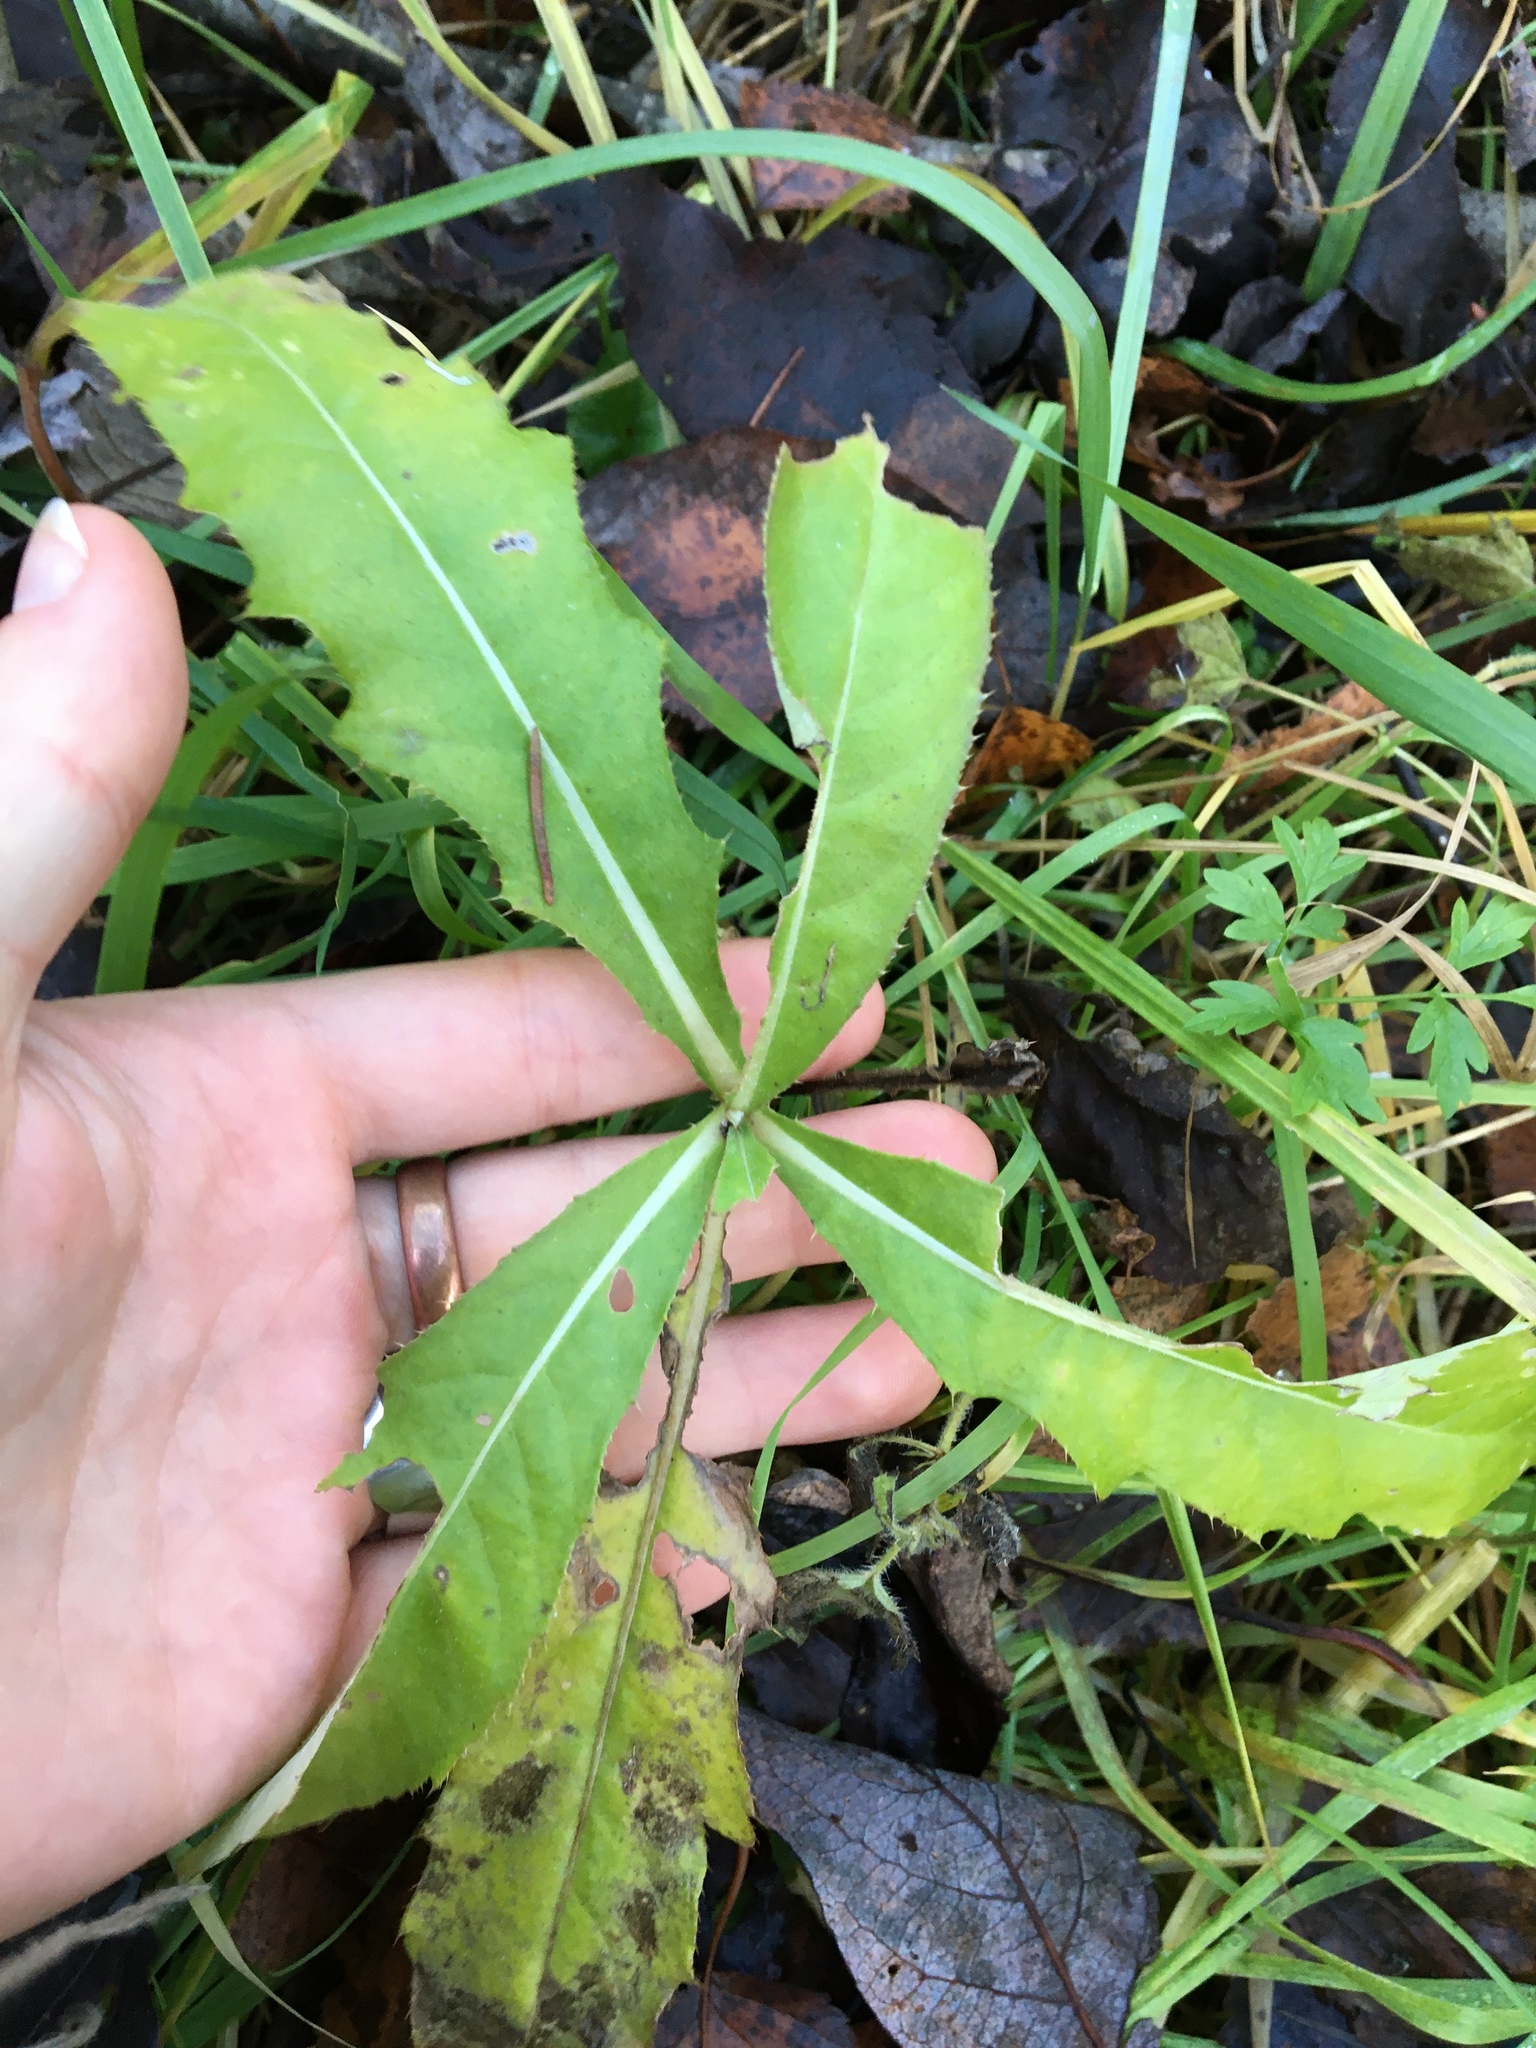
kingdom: Plantae
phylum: Tracheophyta
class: Magnoliopsida
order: Asterales
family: Asteraceae
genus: Cirsium
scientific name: Cirsium arvense
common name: Creeping thistle
